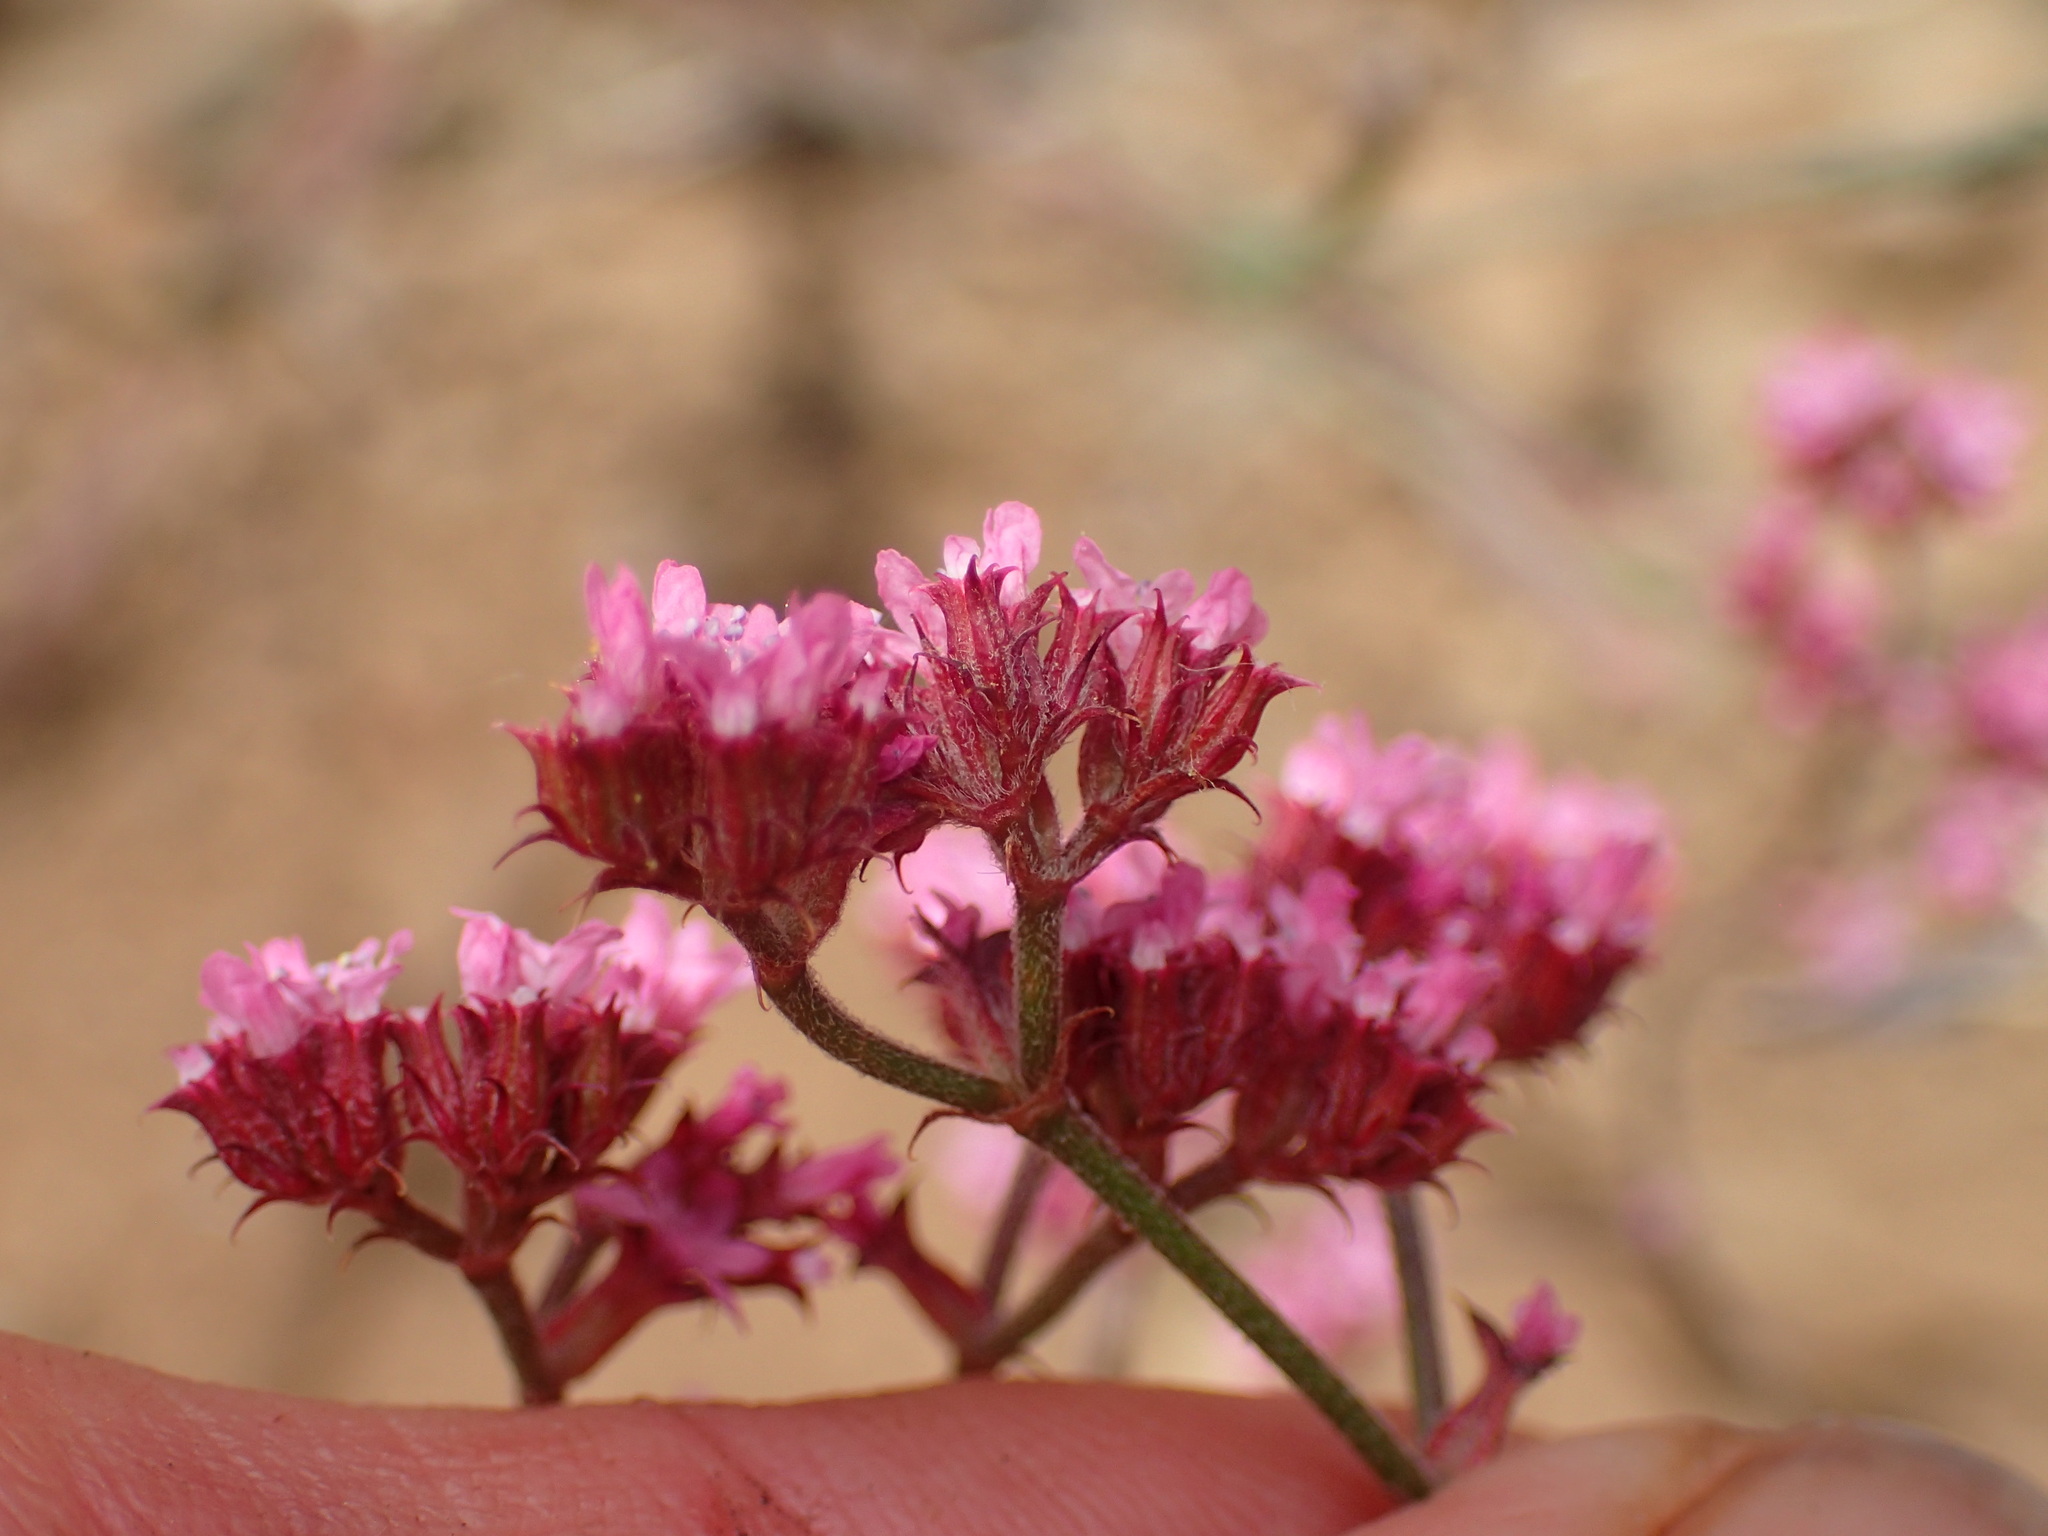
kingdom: Plantae
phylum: Tracheophyta
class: Magnoliopsida
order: Caryophyllales
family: Polygonaceae
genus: Chorizanthe
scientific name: Chorizanthe staticoides
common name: Turkish rugging
